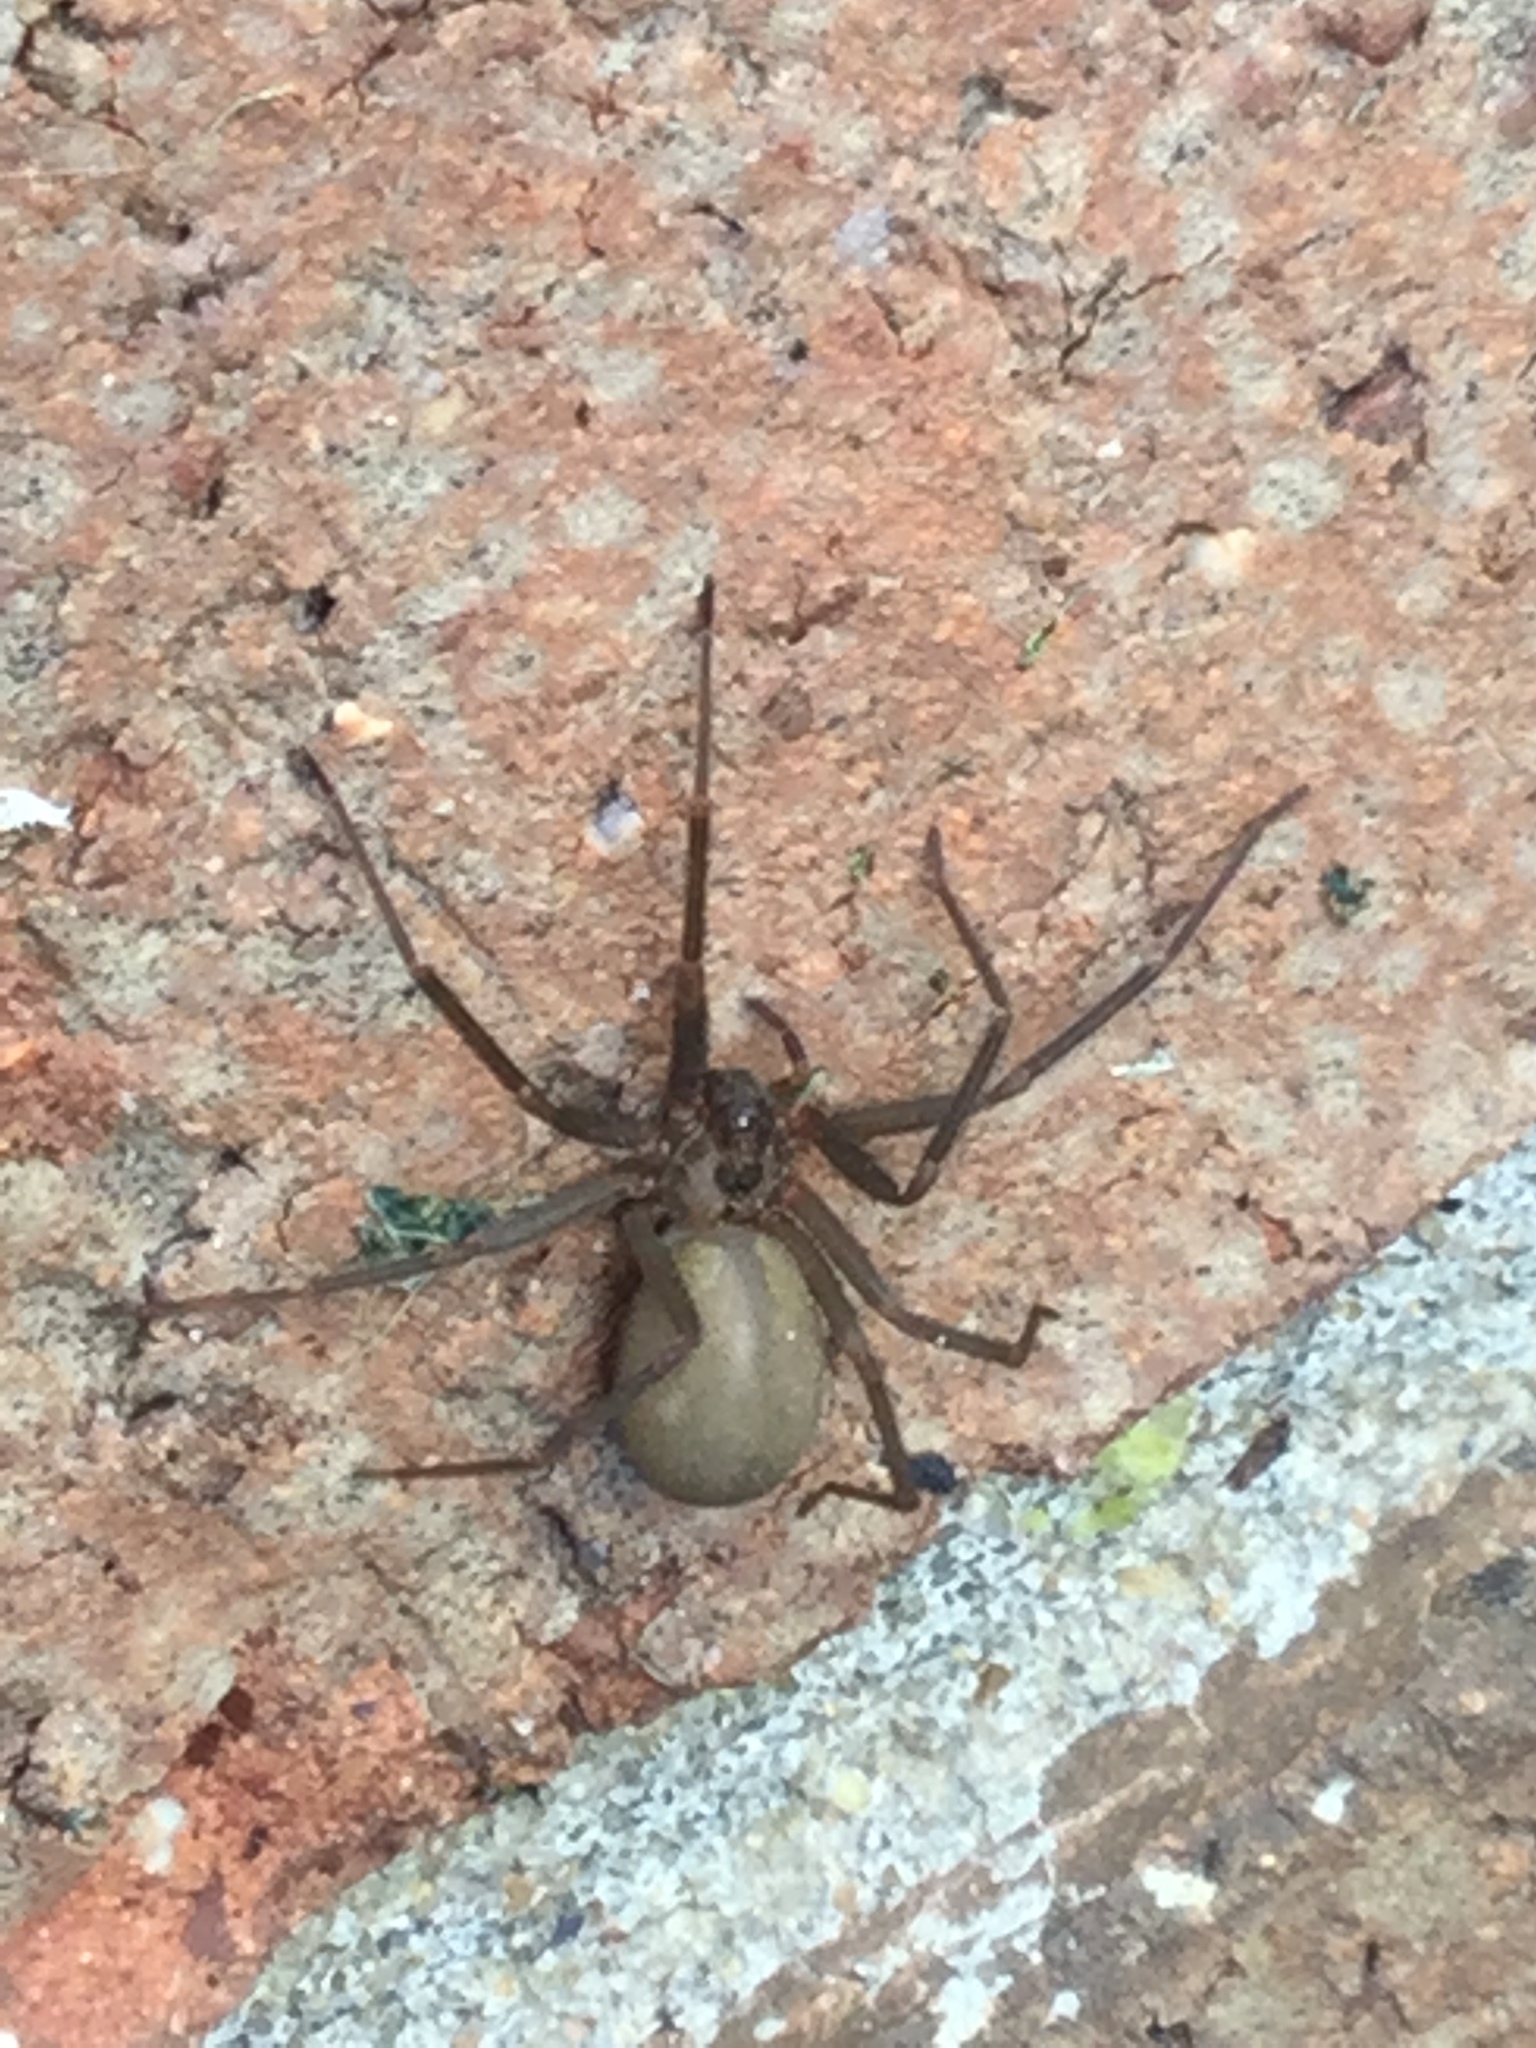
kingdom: Animalia
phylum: Arthropoda
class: Arachnida
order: Araneae
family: Sicariidae
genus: Loxosceles
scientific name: Loxosceles reclusa
